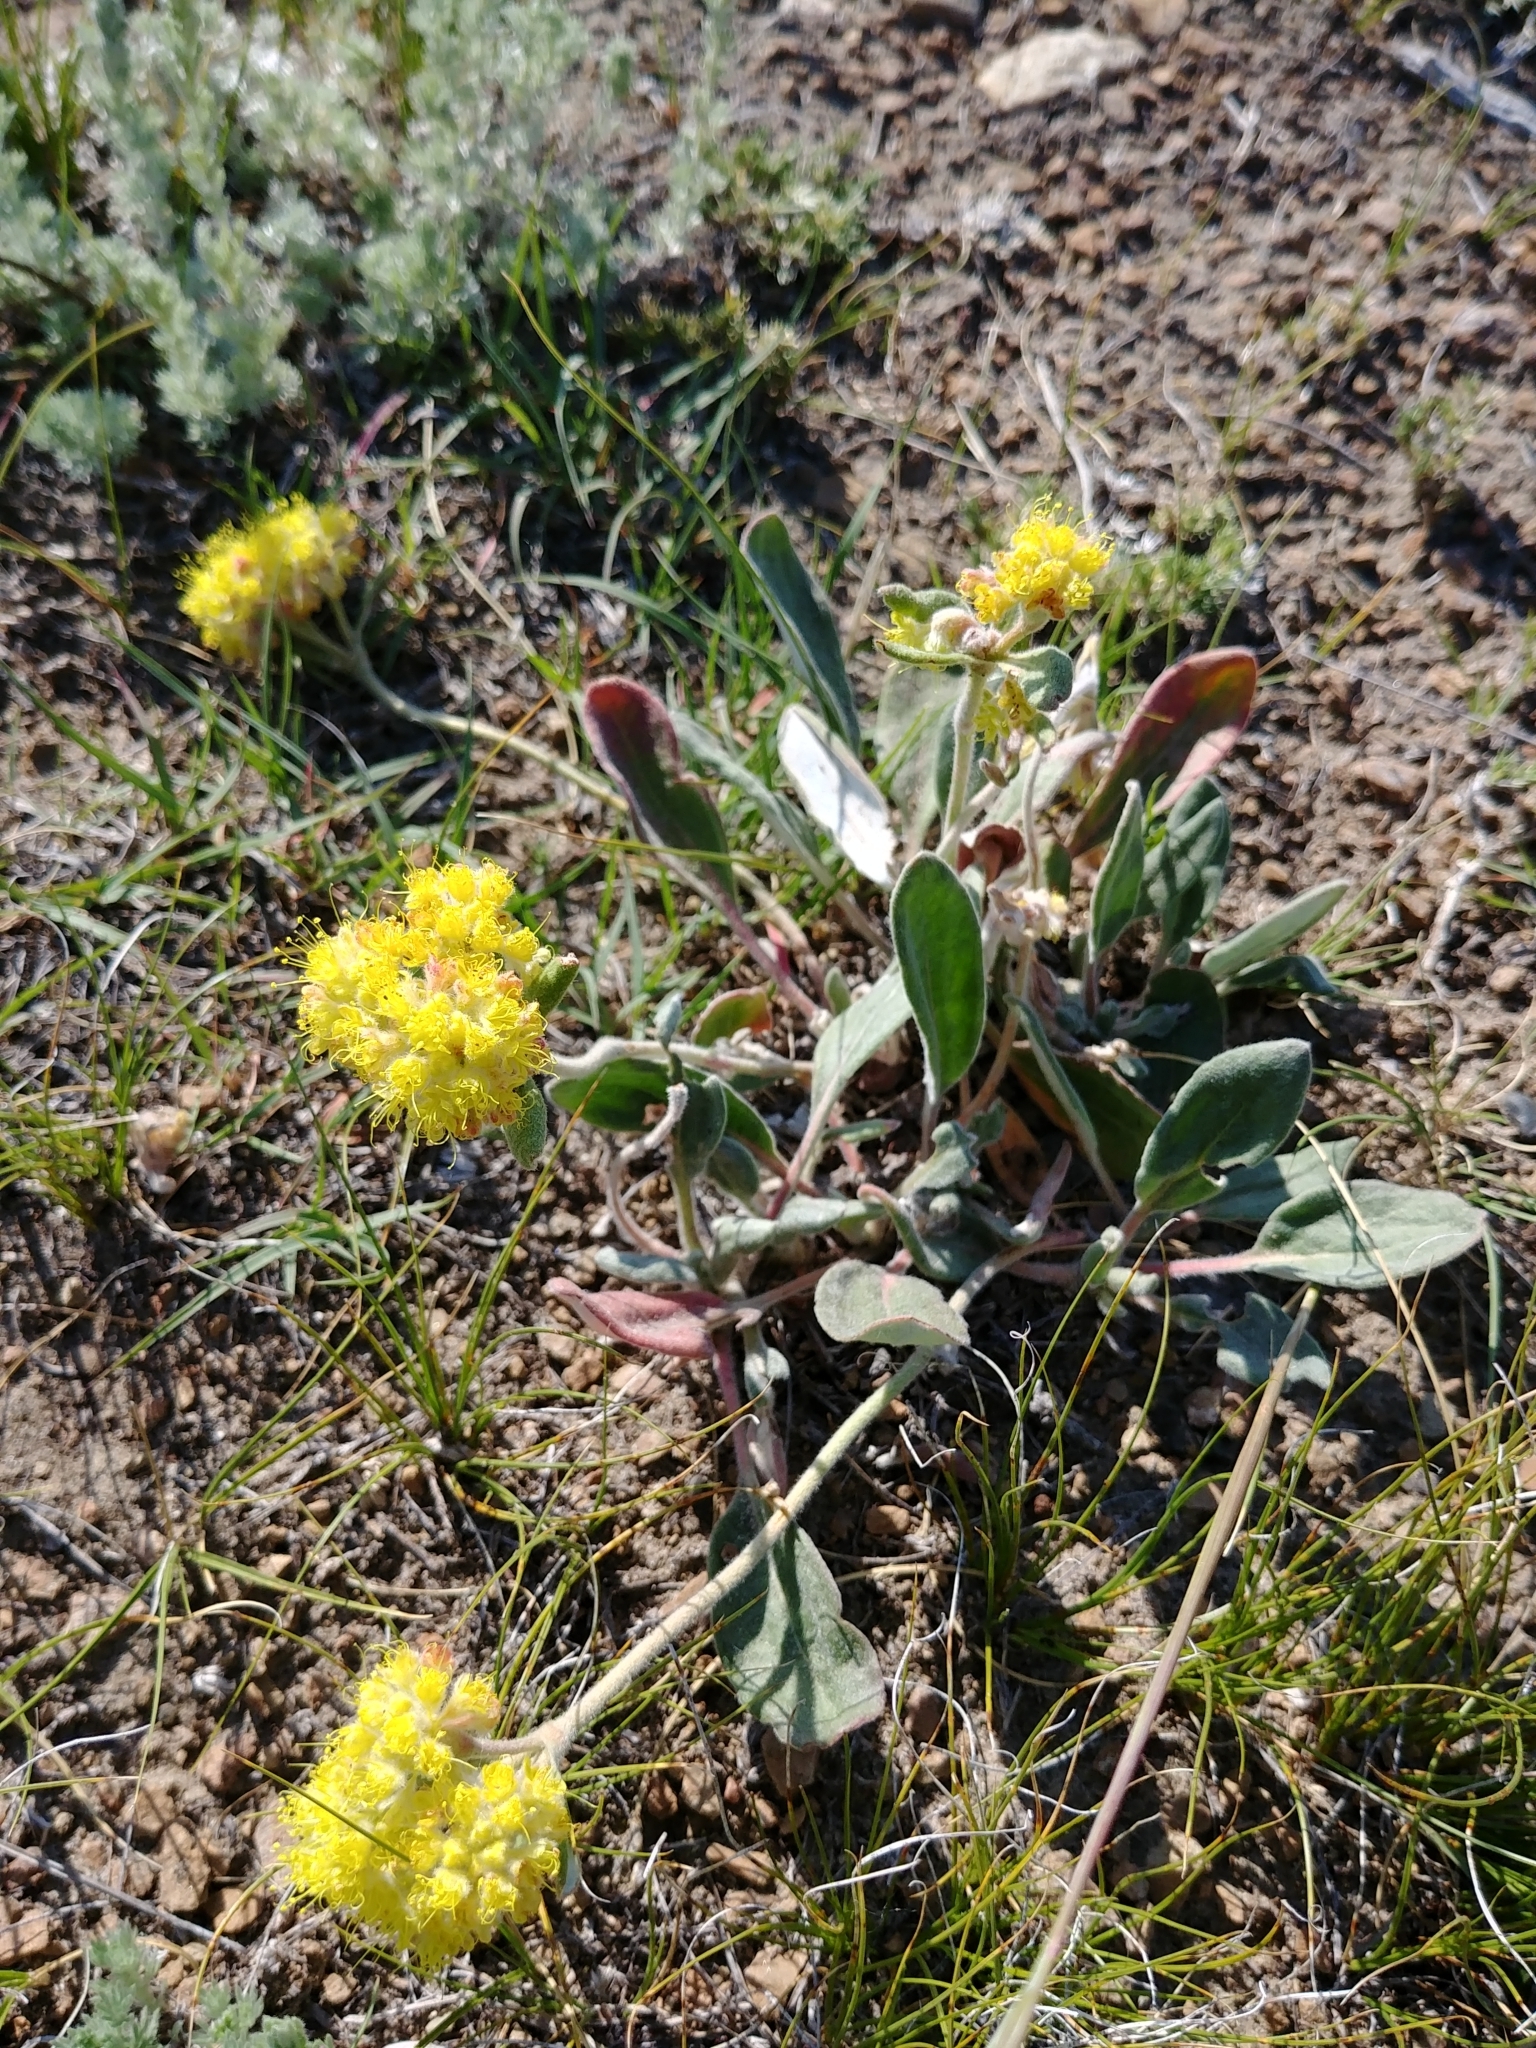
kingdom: Plantae
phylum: Tracheophyta
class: Magnoliopsida
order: Caryophyllales
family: Polygonaceae
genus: Eriogonum
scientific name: Eriogonum flavum
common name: Alpine golden wild buckwheat
